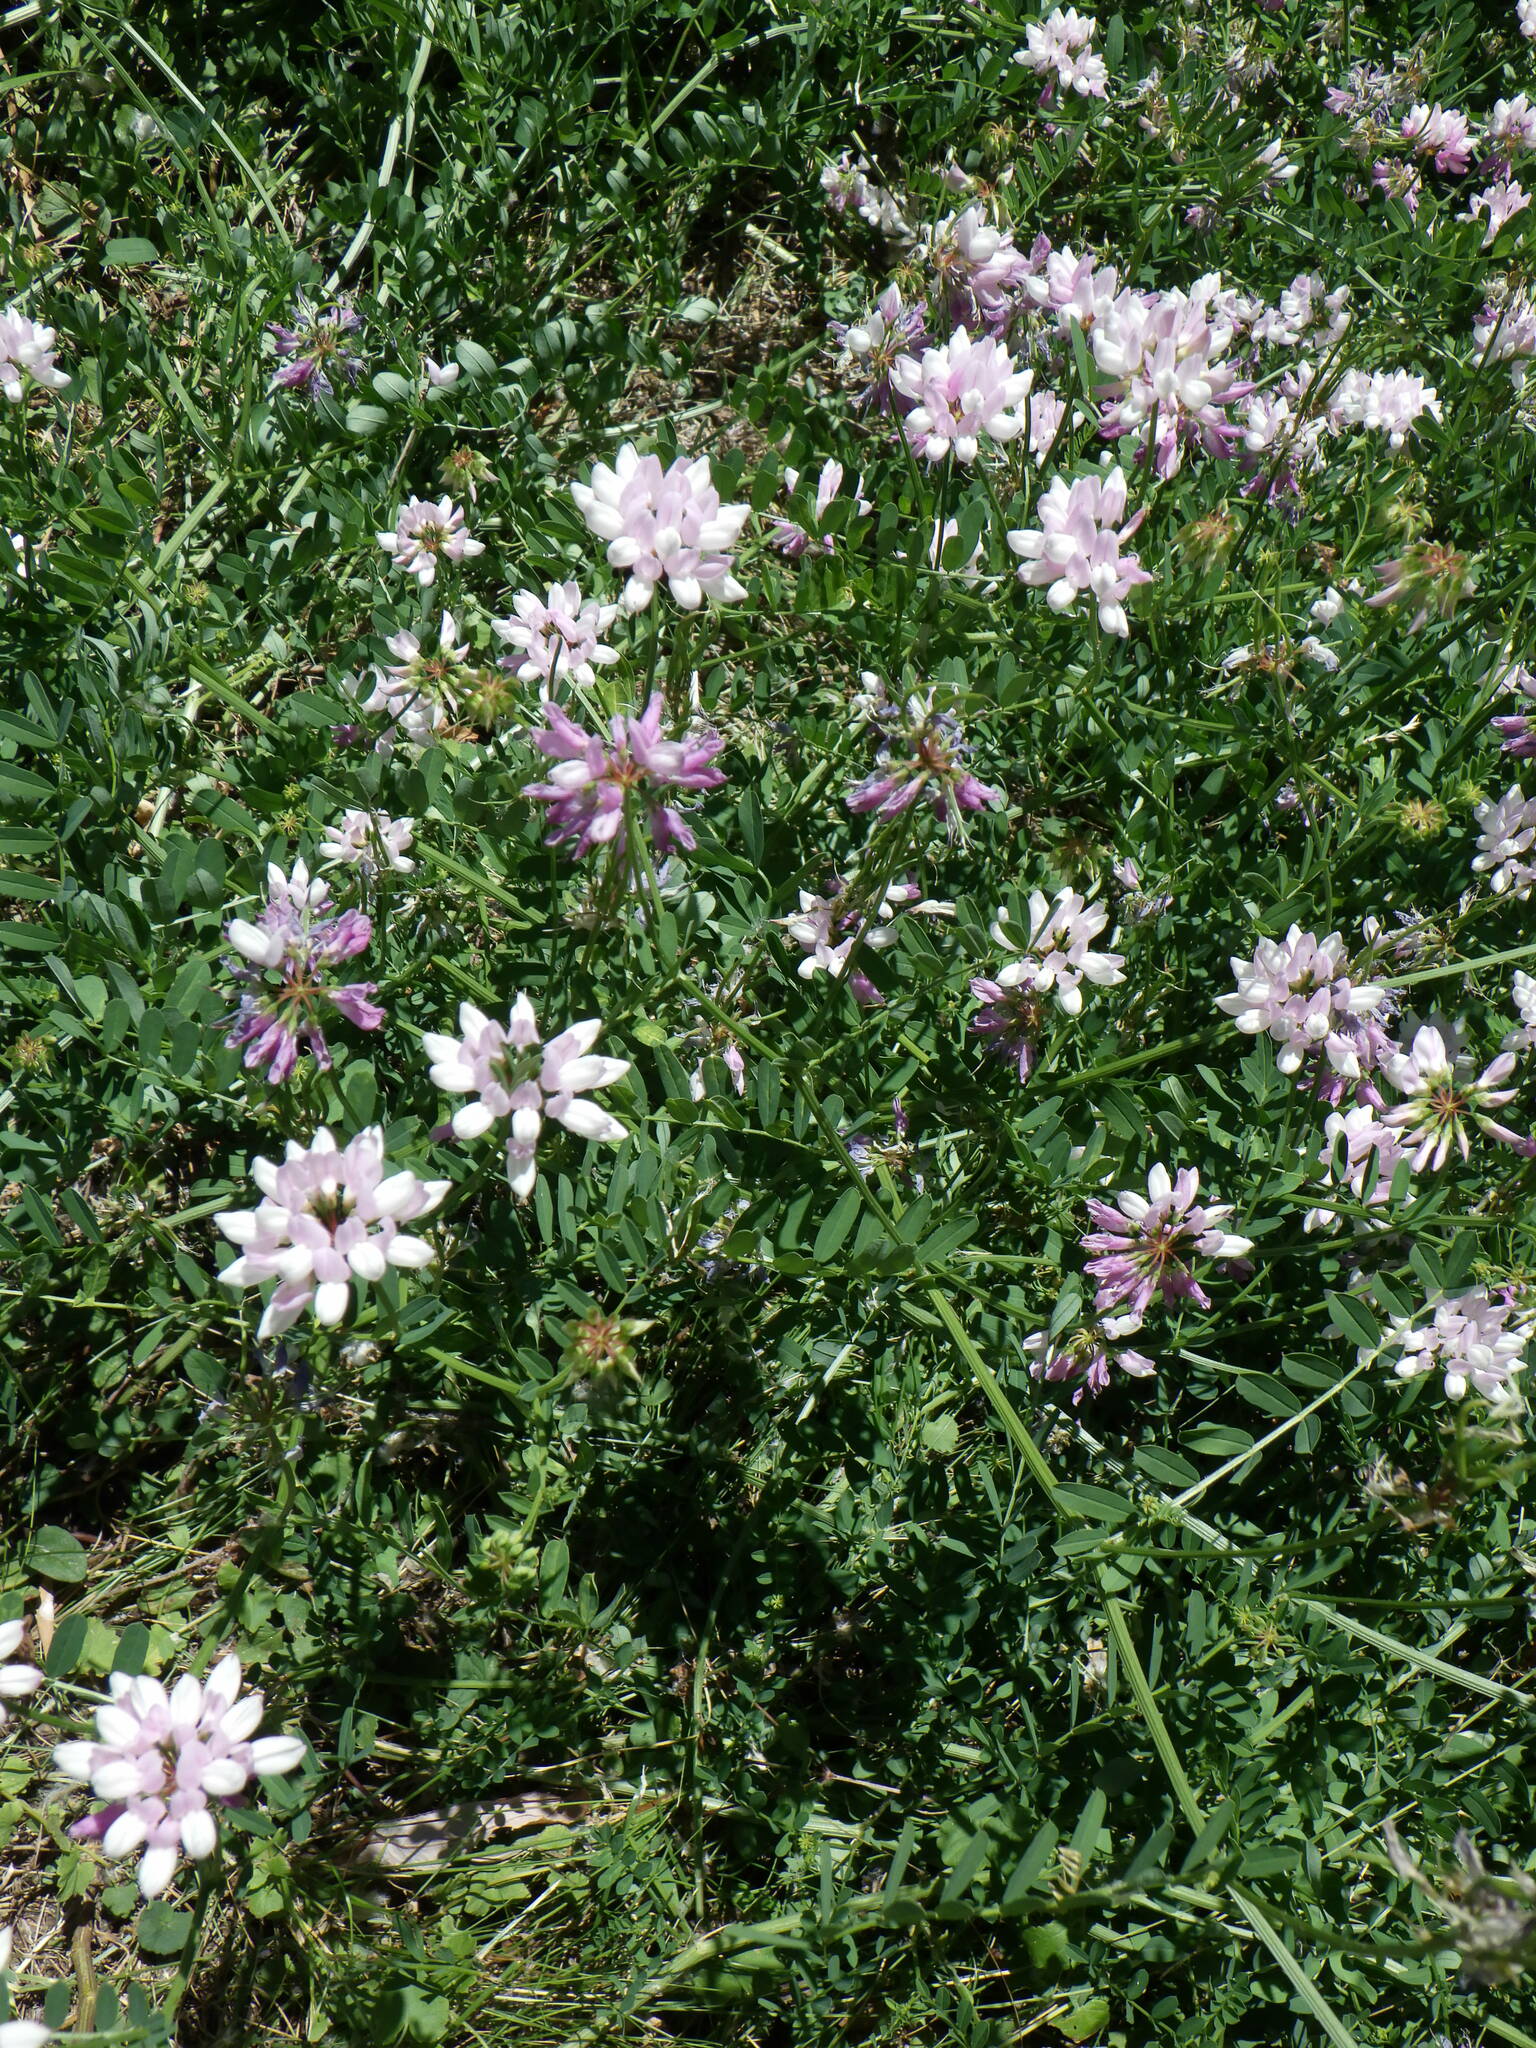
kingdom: Plantae
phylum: Tracheophyta
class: Magnoliopsida
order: Fabales
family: Fabaceae
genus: Coronilla
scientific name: Coronilla varia
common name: Crownvetch
